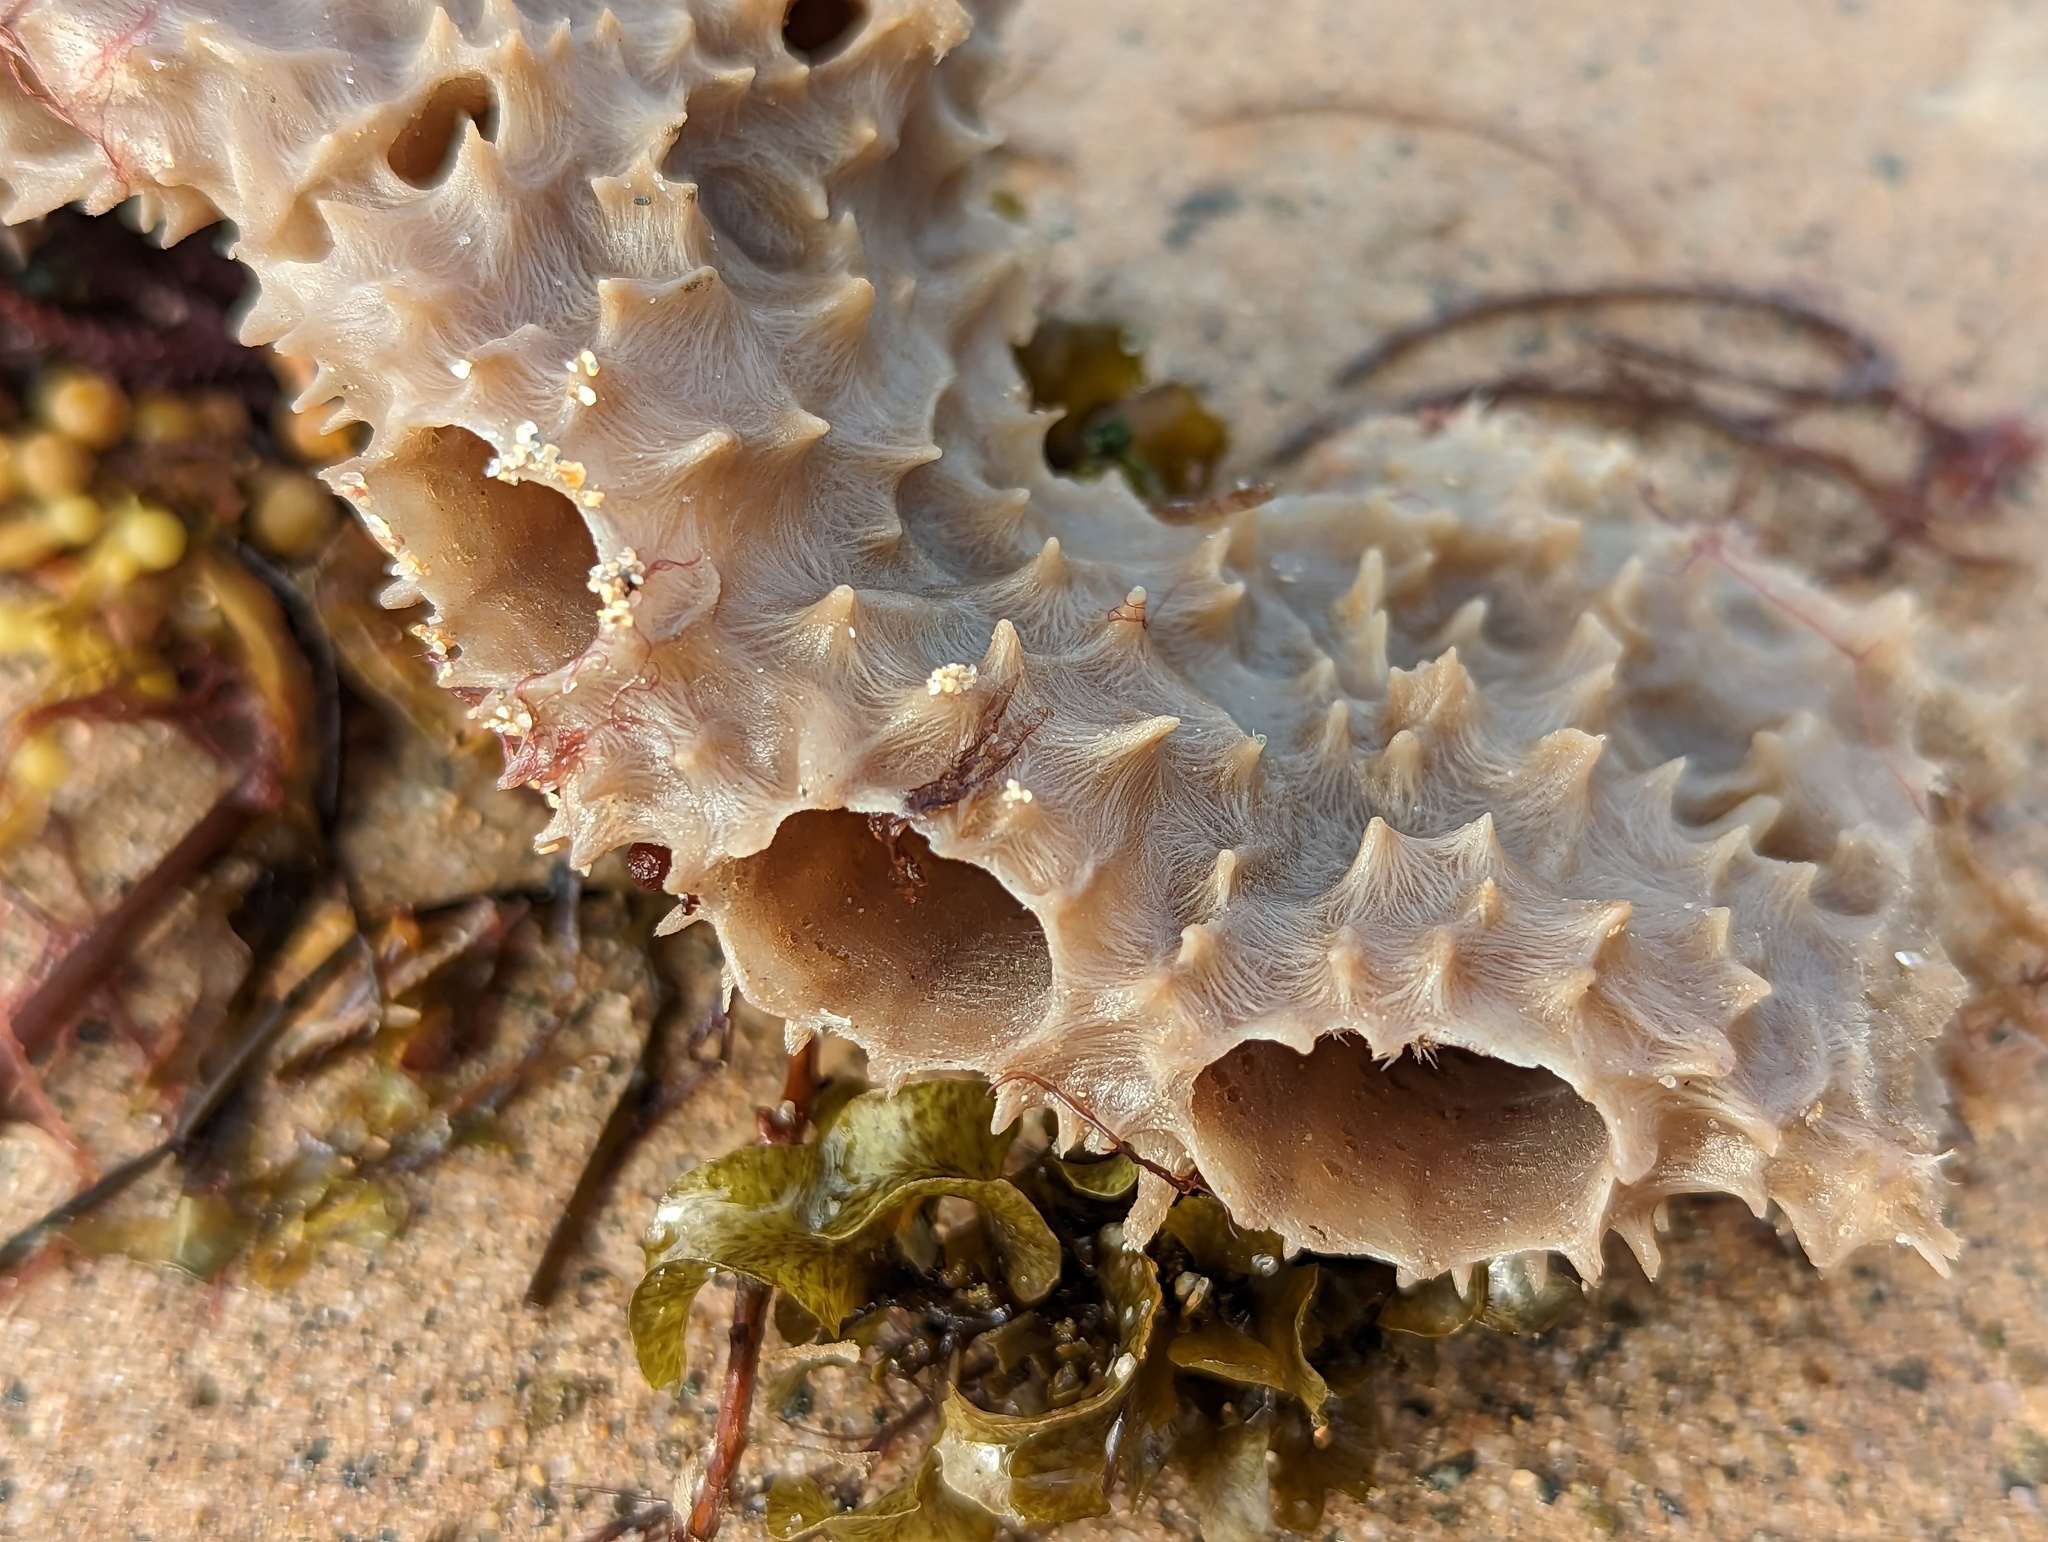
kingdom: Animalia
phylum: Porifera
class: Demospongiae
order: Haplosclerida
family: Callyspongiidae
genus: Callyspongia
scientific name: Callyspongia aculeata
